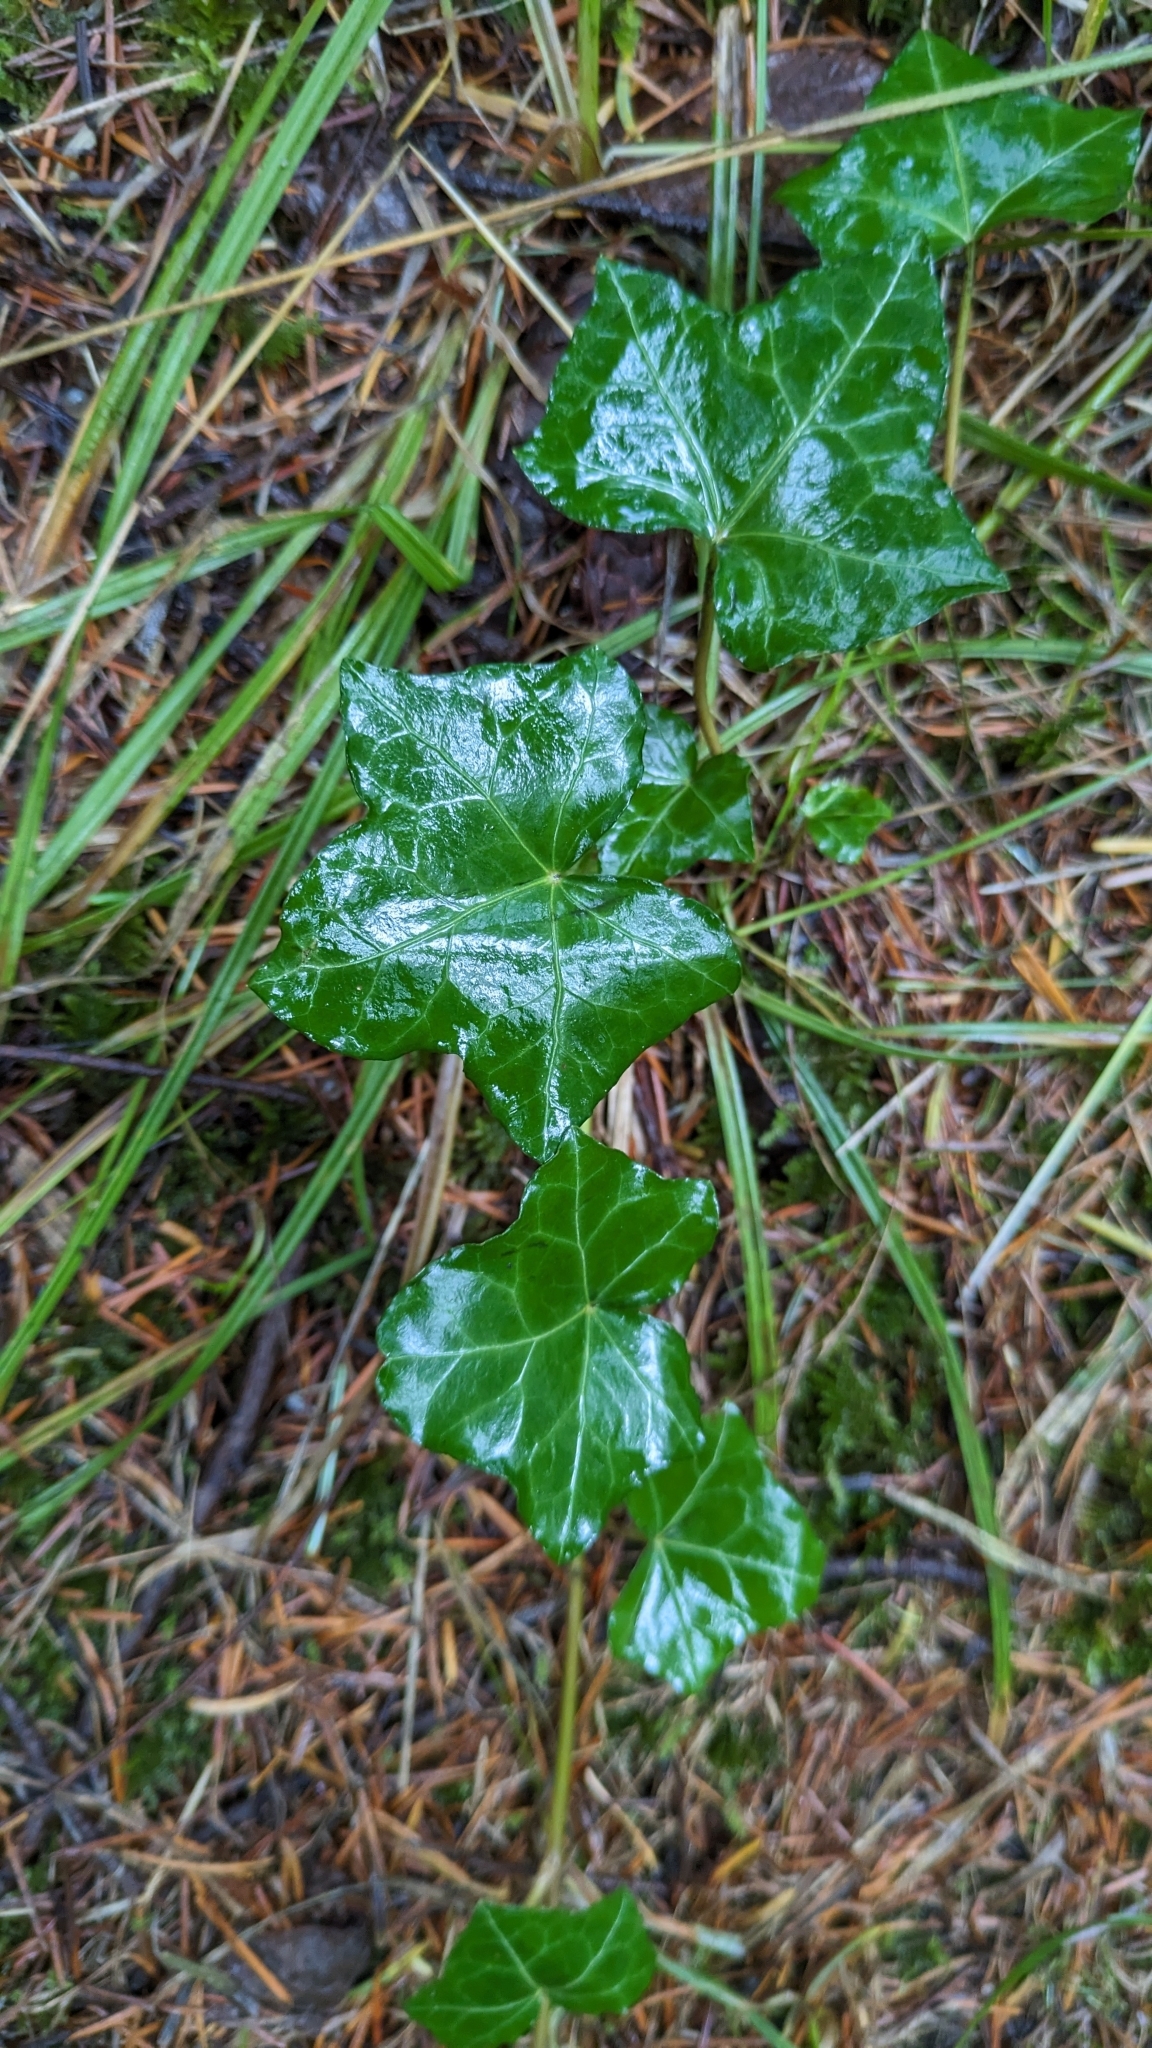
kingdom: Plantae
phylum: Tracheophyta
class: Magnoliopsida
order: Apiales
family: Araliaceae
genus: Hedera
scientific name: Hedera helix
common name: Ivy
